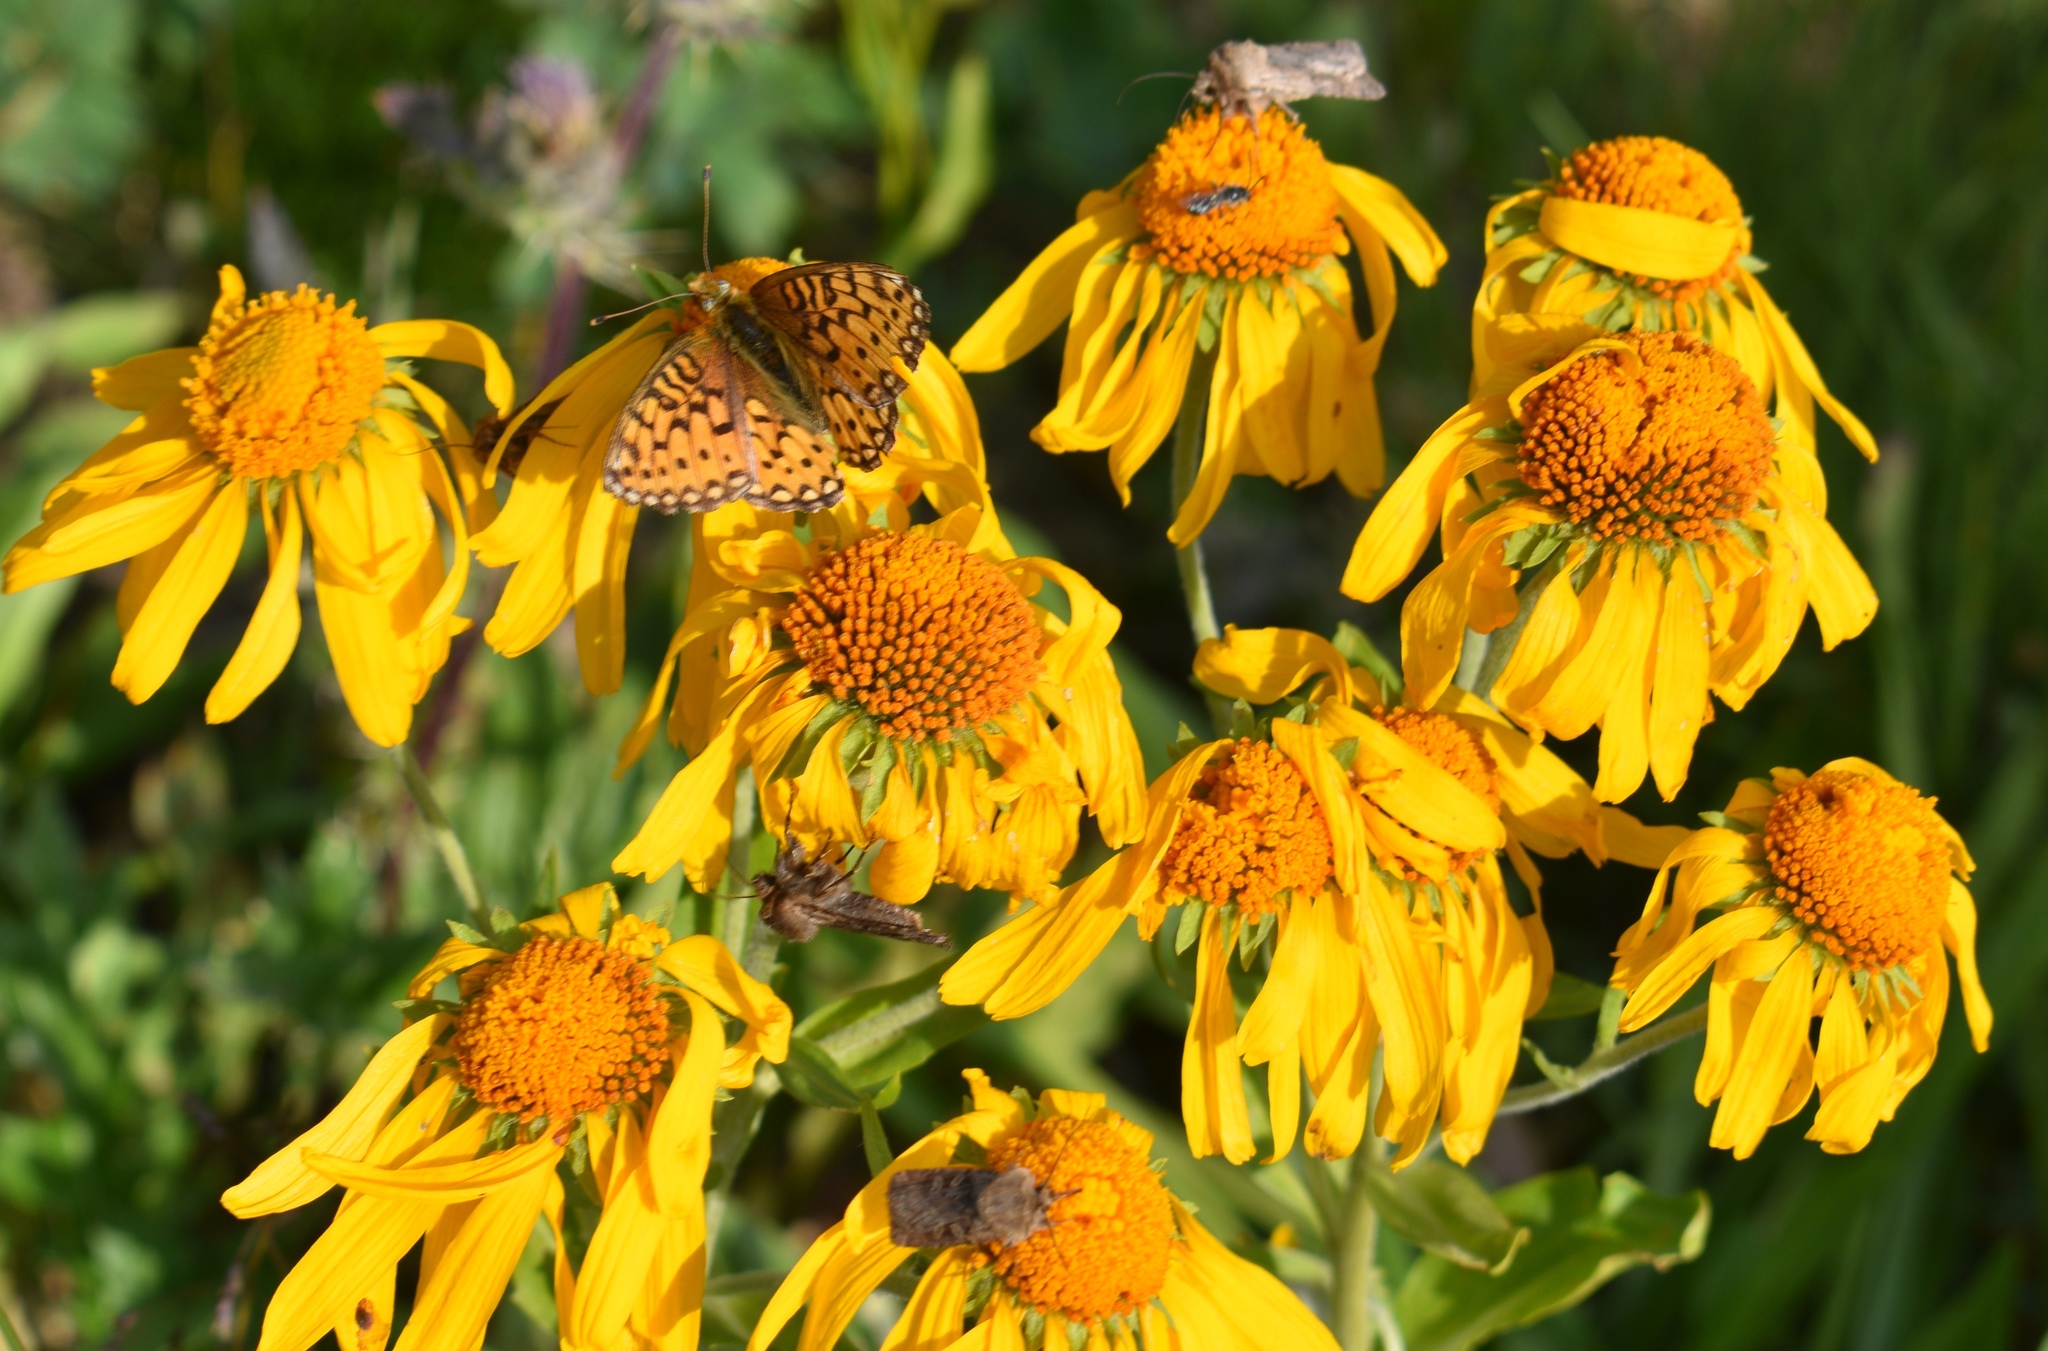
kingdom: Animalia
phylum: Arthropoda
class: Insecta
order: Lepidoptera
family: Nymphalidae
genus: Speyeria
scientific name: Speyeria mormonia
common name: Mormon fritillary
